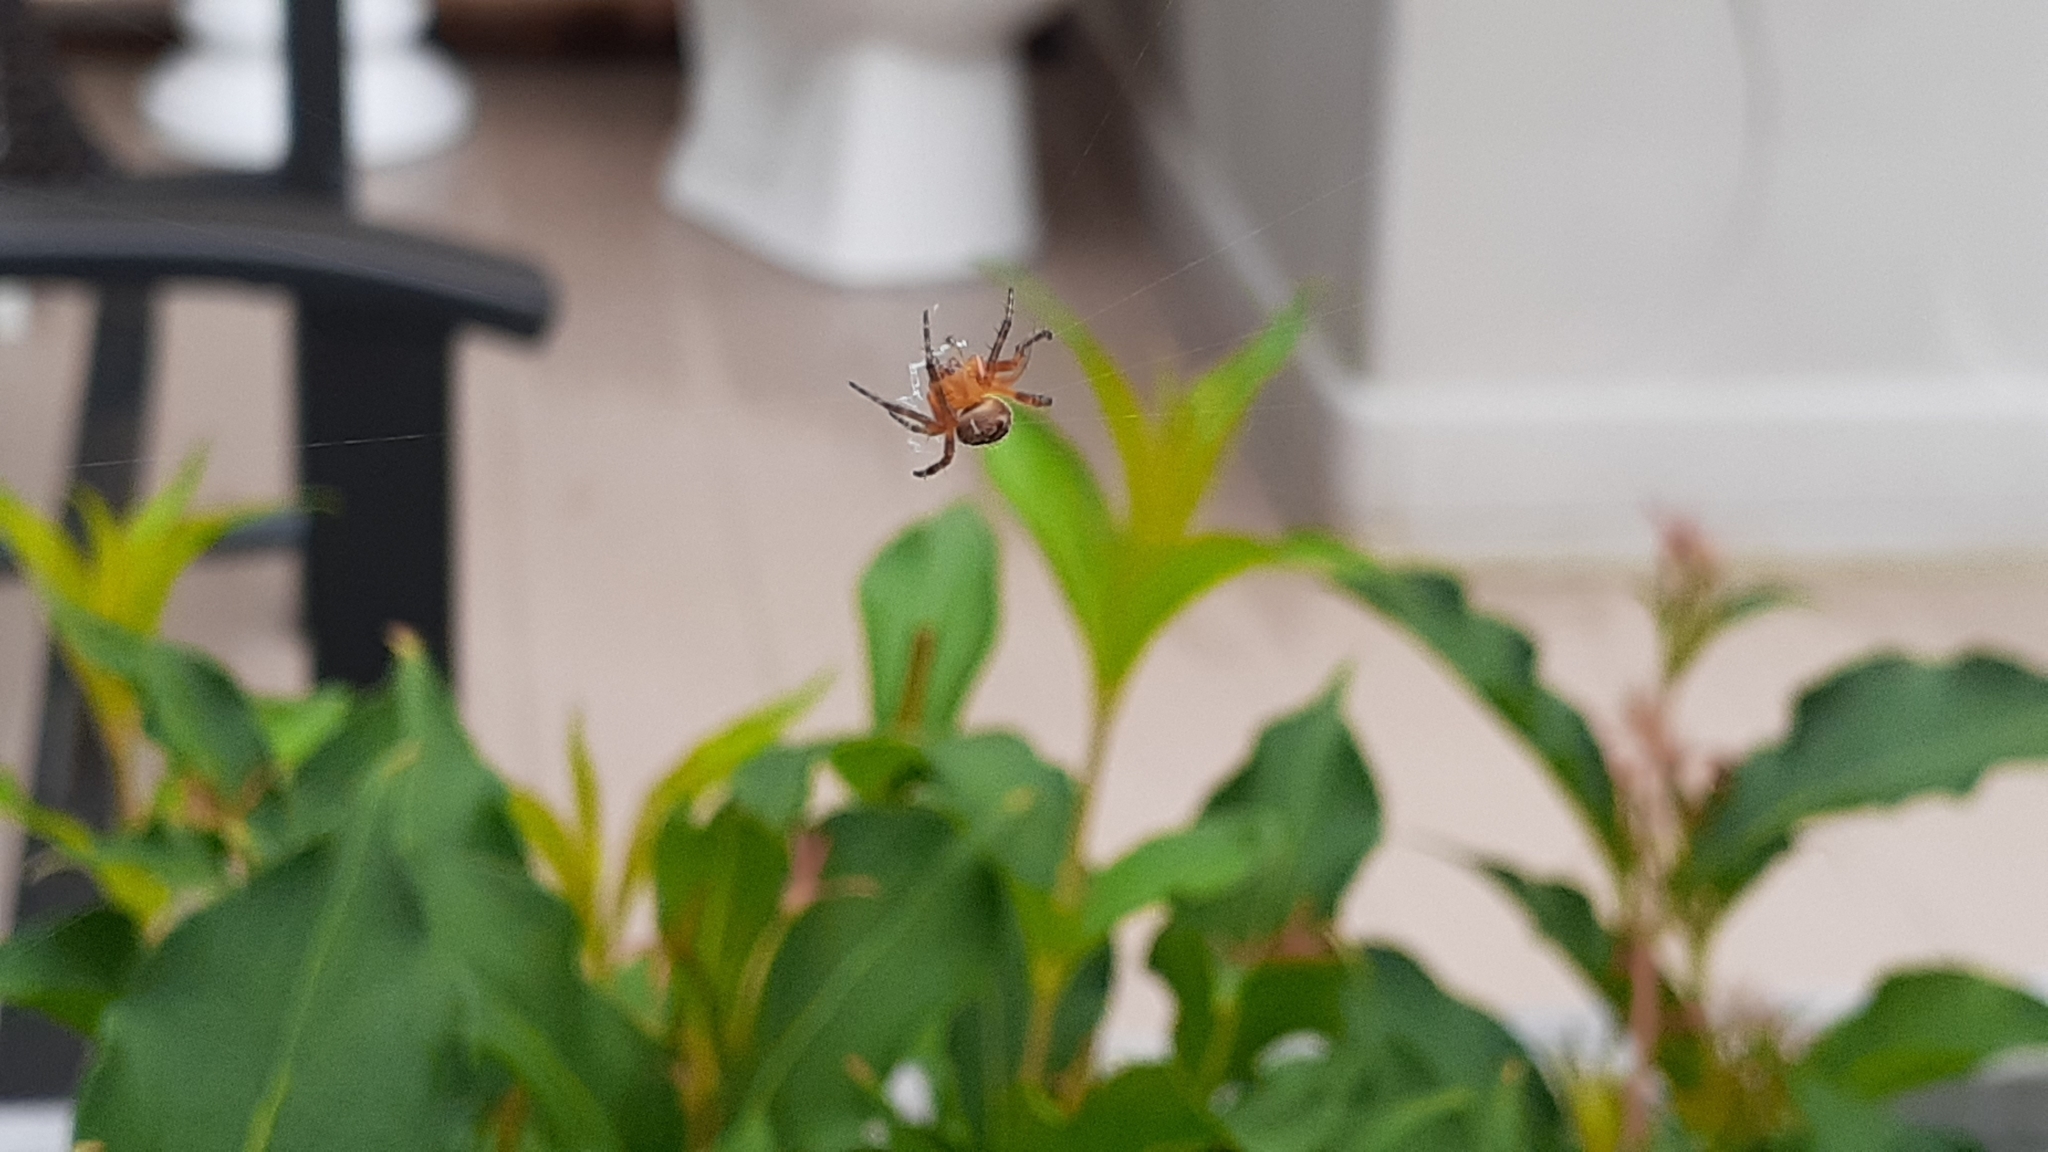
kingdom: Animalia
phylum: Arthropoda
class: Arachnida
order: Araneae
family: Araneidae
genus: Araneus
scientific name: Araneus diadematus
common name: Cross orbweaver
